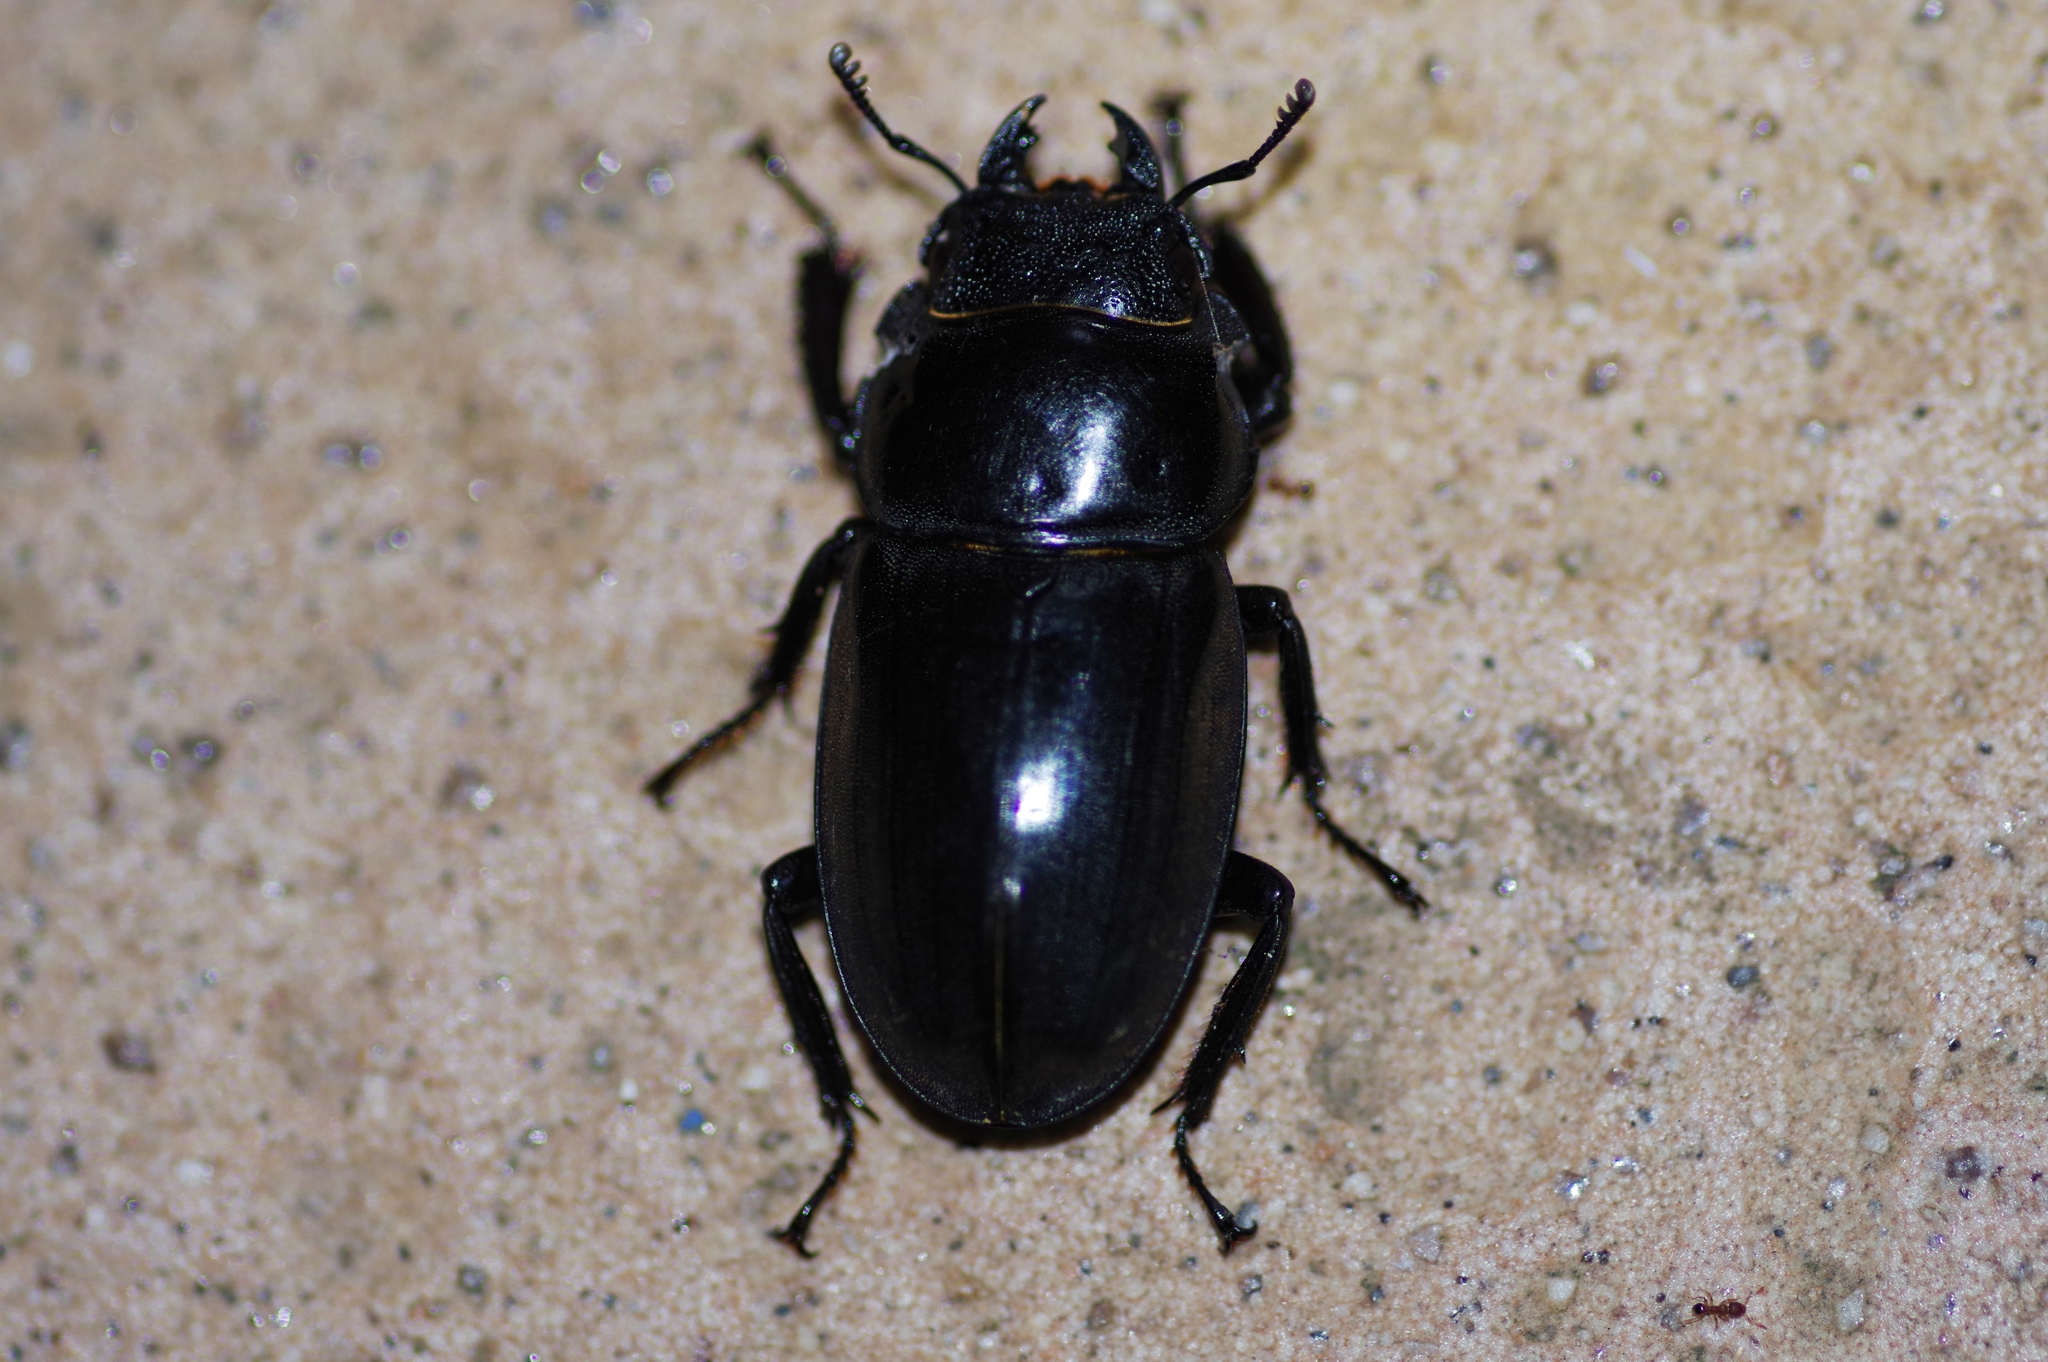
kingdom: Animalia
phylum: Arthropoda
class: Insecta
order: Coleoptera
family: Lucanidae
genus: Serrognathus
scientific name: Serrognathus titanus
